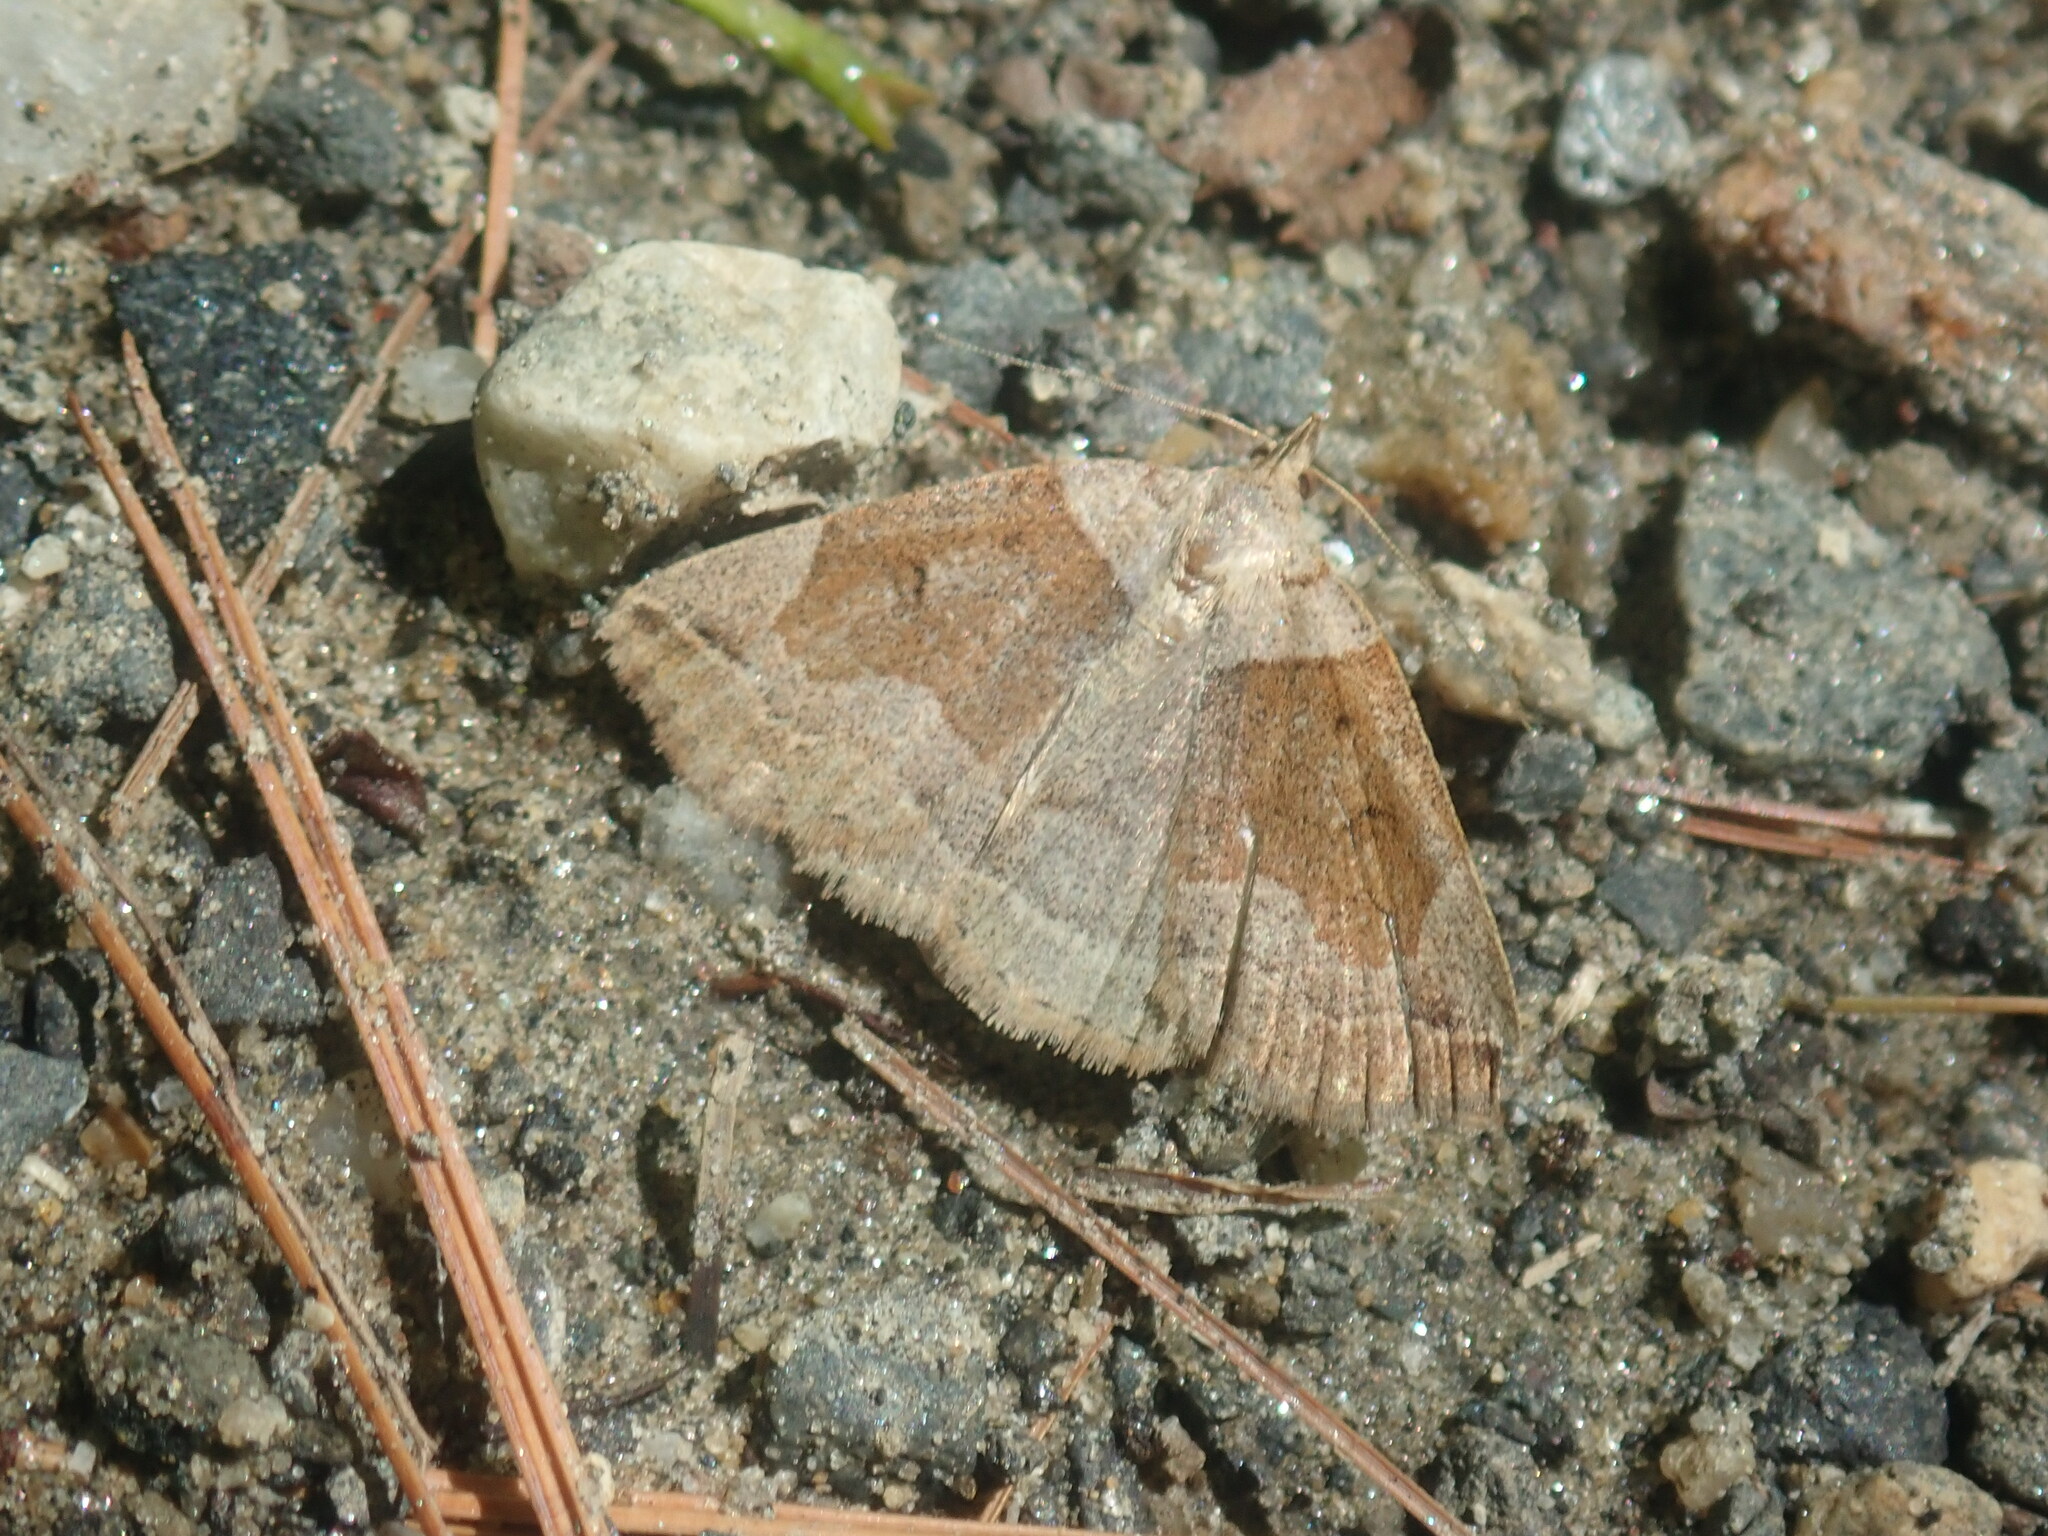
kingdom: Animalia
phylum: Arthropoda
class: Insecta
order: Lepidoptera
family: Erebidae
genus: Zanclognatha
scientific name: Zanclognatha laevigata
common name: Variable fan-foot
